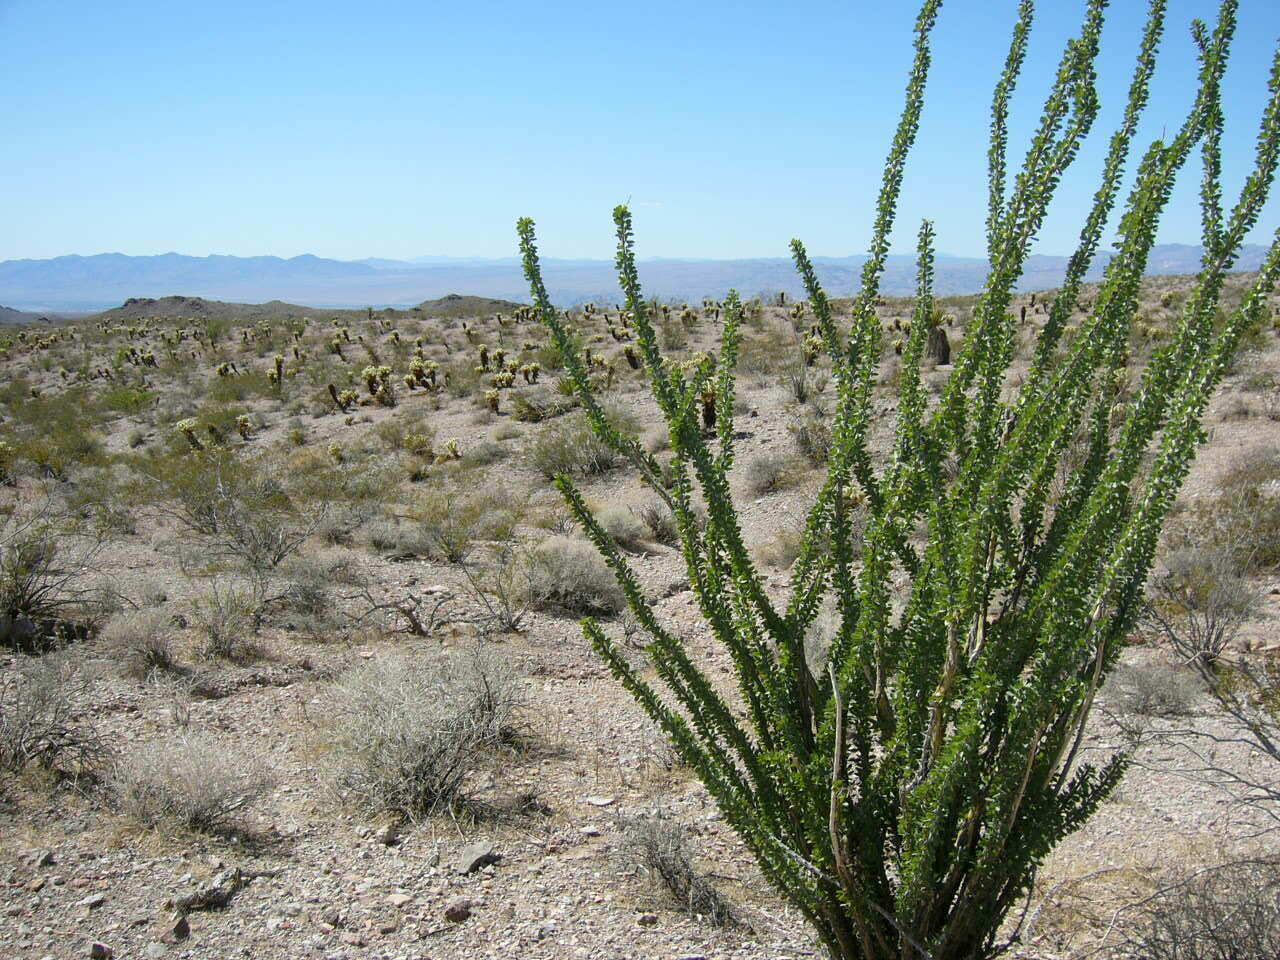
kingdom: Plantae
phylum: Tracheophyta
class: Magnoliopsida
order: Ericales
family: Fouquieriaceae
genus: Fouquieria
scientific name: Fouquieria splendens
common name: Vine-cactus
